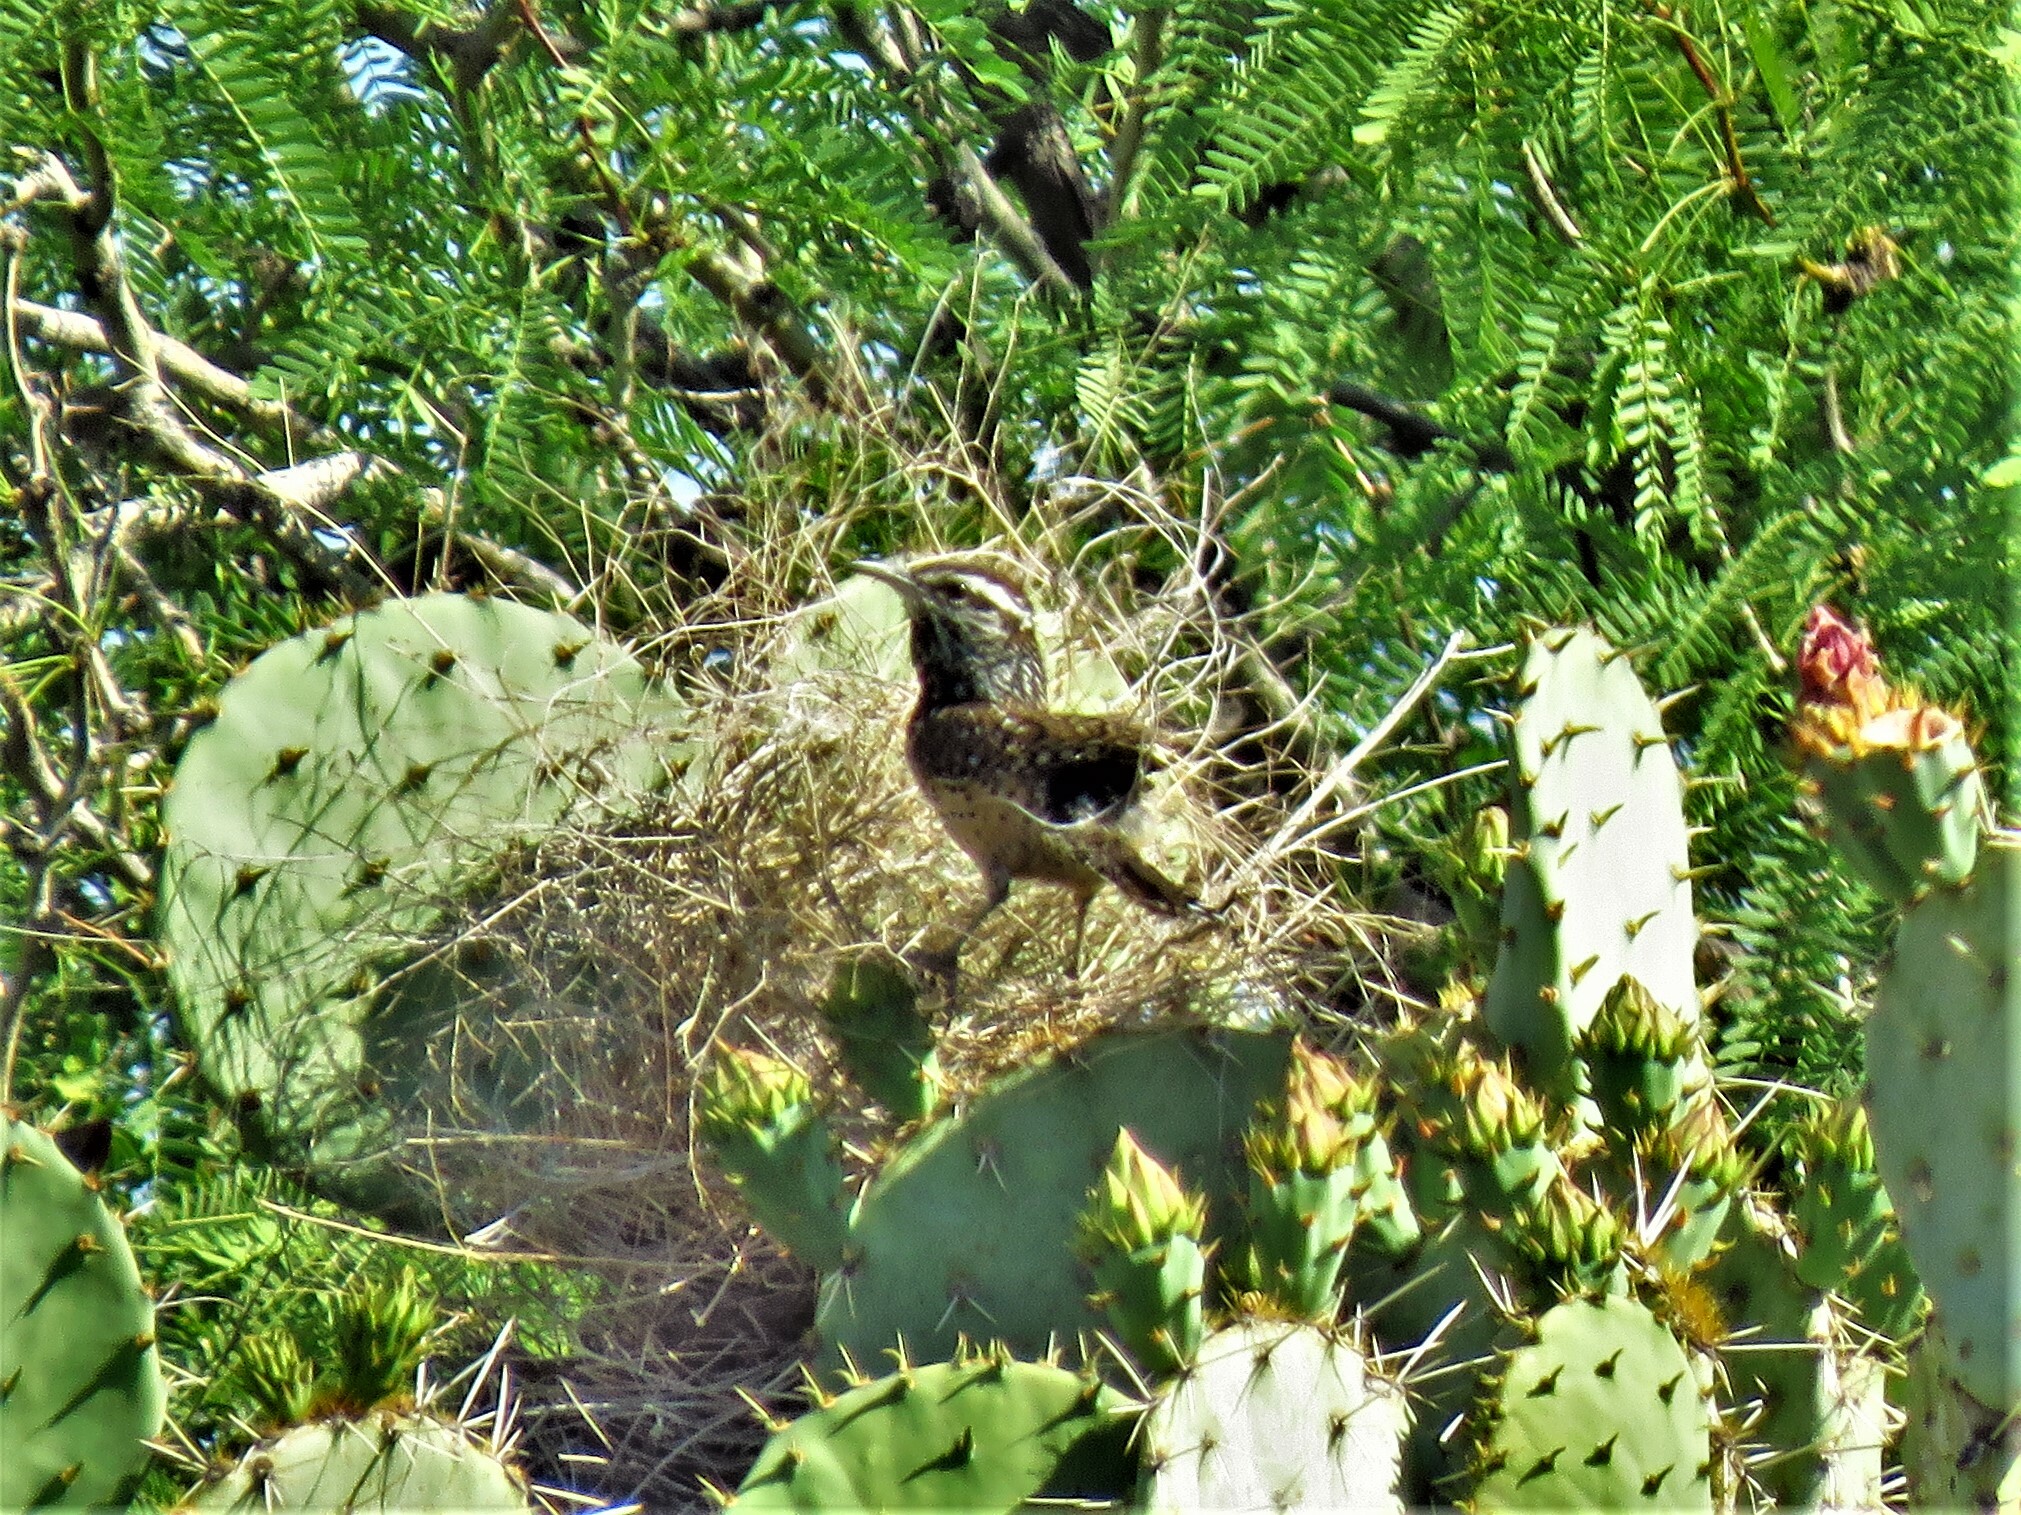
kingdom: Animalia
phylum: Chordata
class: Aves
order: Passeriformes
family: Troglodytidae
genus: Campylorhynchus
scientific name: Campylorhynchus brunneicapillus
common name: Cactus wren
